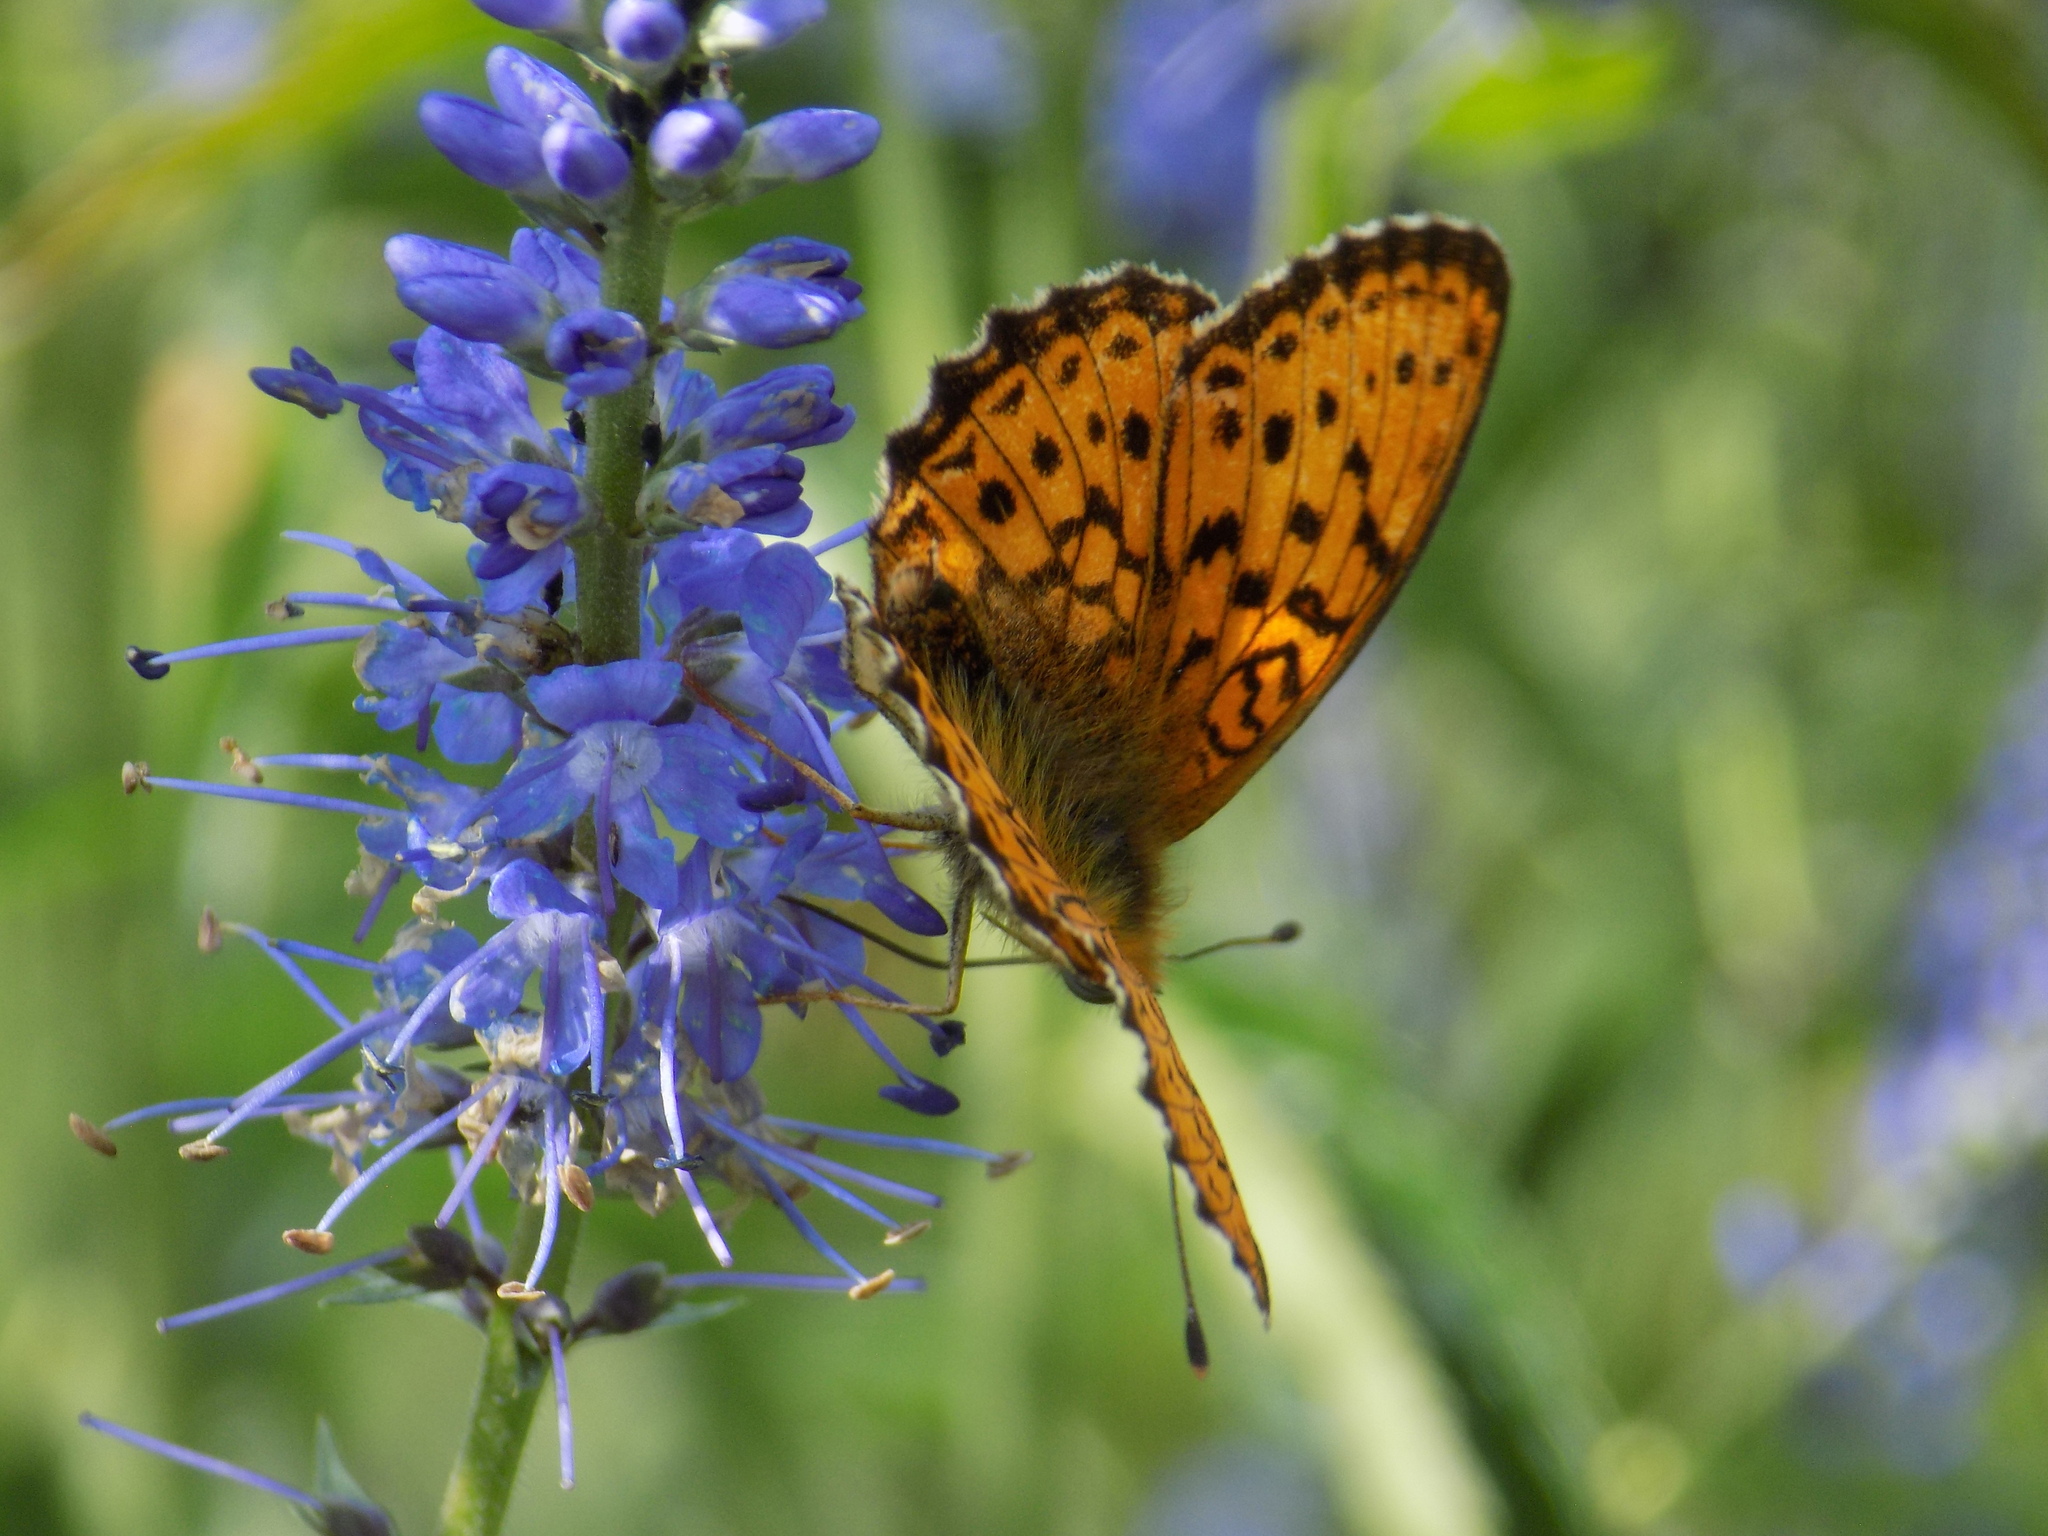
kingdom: Animalia
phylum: Arthropoda
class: Insecta
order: Lepidoptera
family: Nymphalidae
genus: Brenthis
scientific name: Brenthis ino
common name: Lesser marbled fritillary
